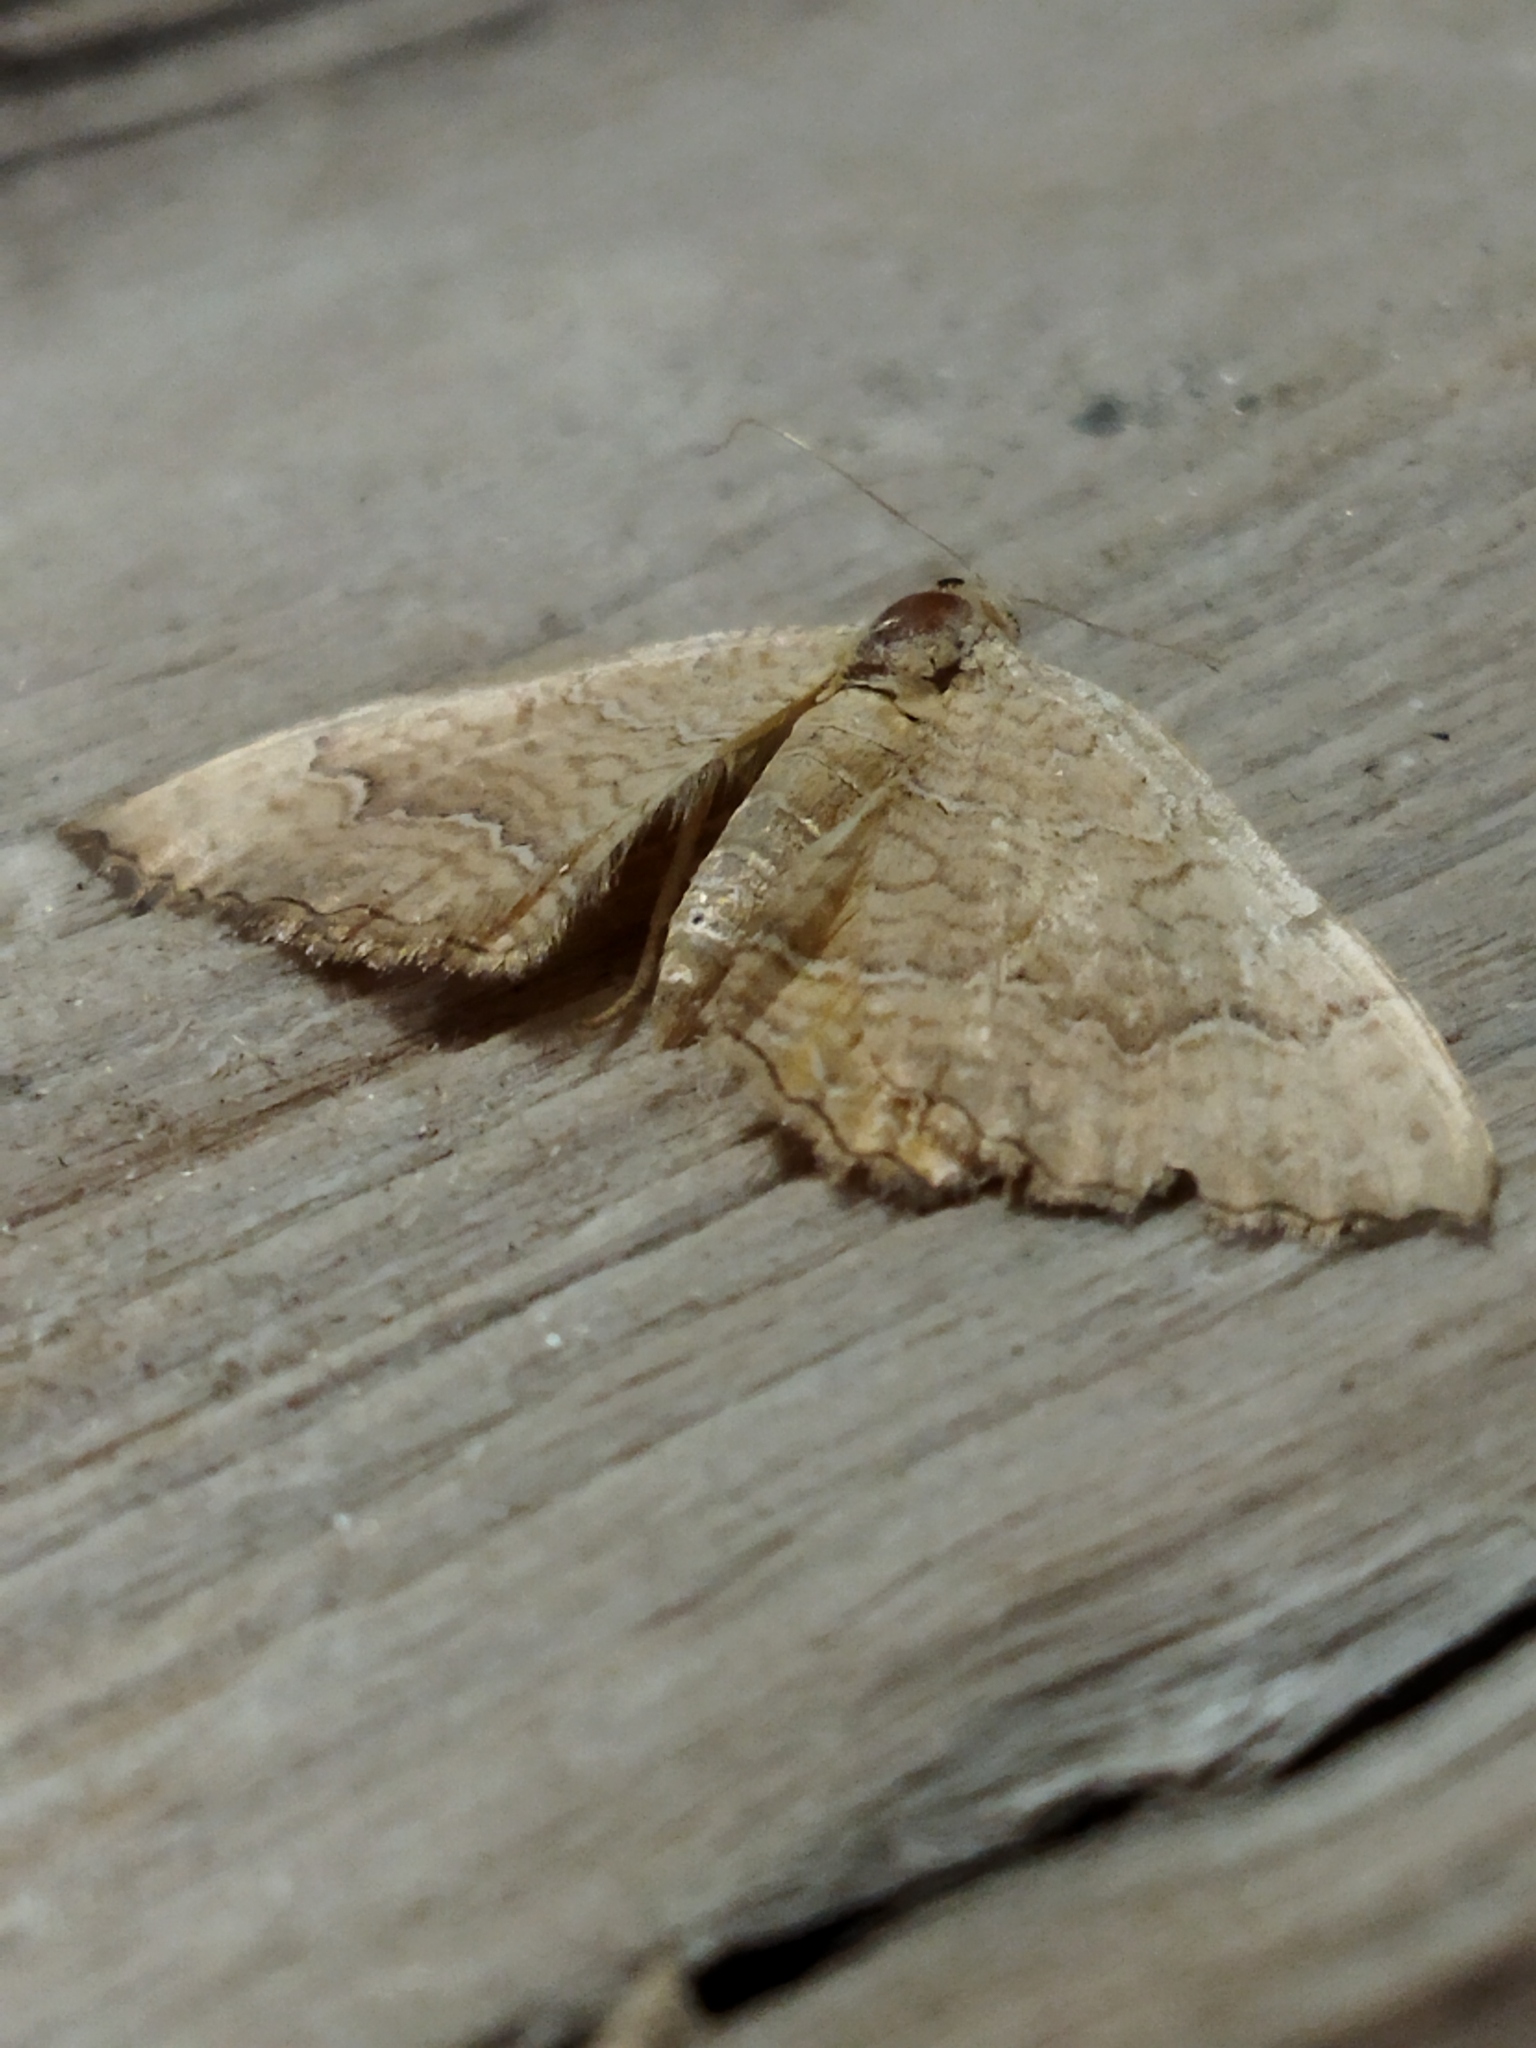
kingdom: Animalia
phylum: Arthropoda
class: Insecta
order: Lepidoptera
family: Geometridae
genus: Camptogramma
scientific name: Camptogramma bilineata
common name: Yellow shell
